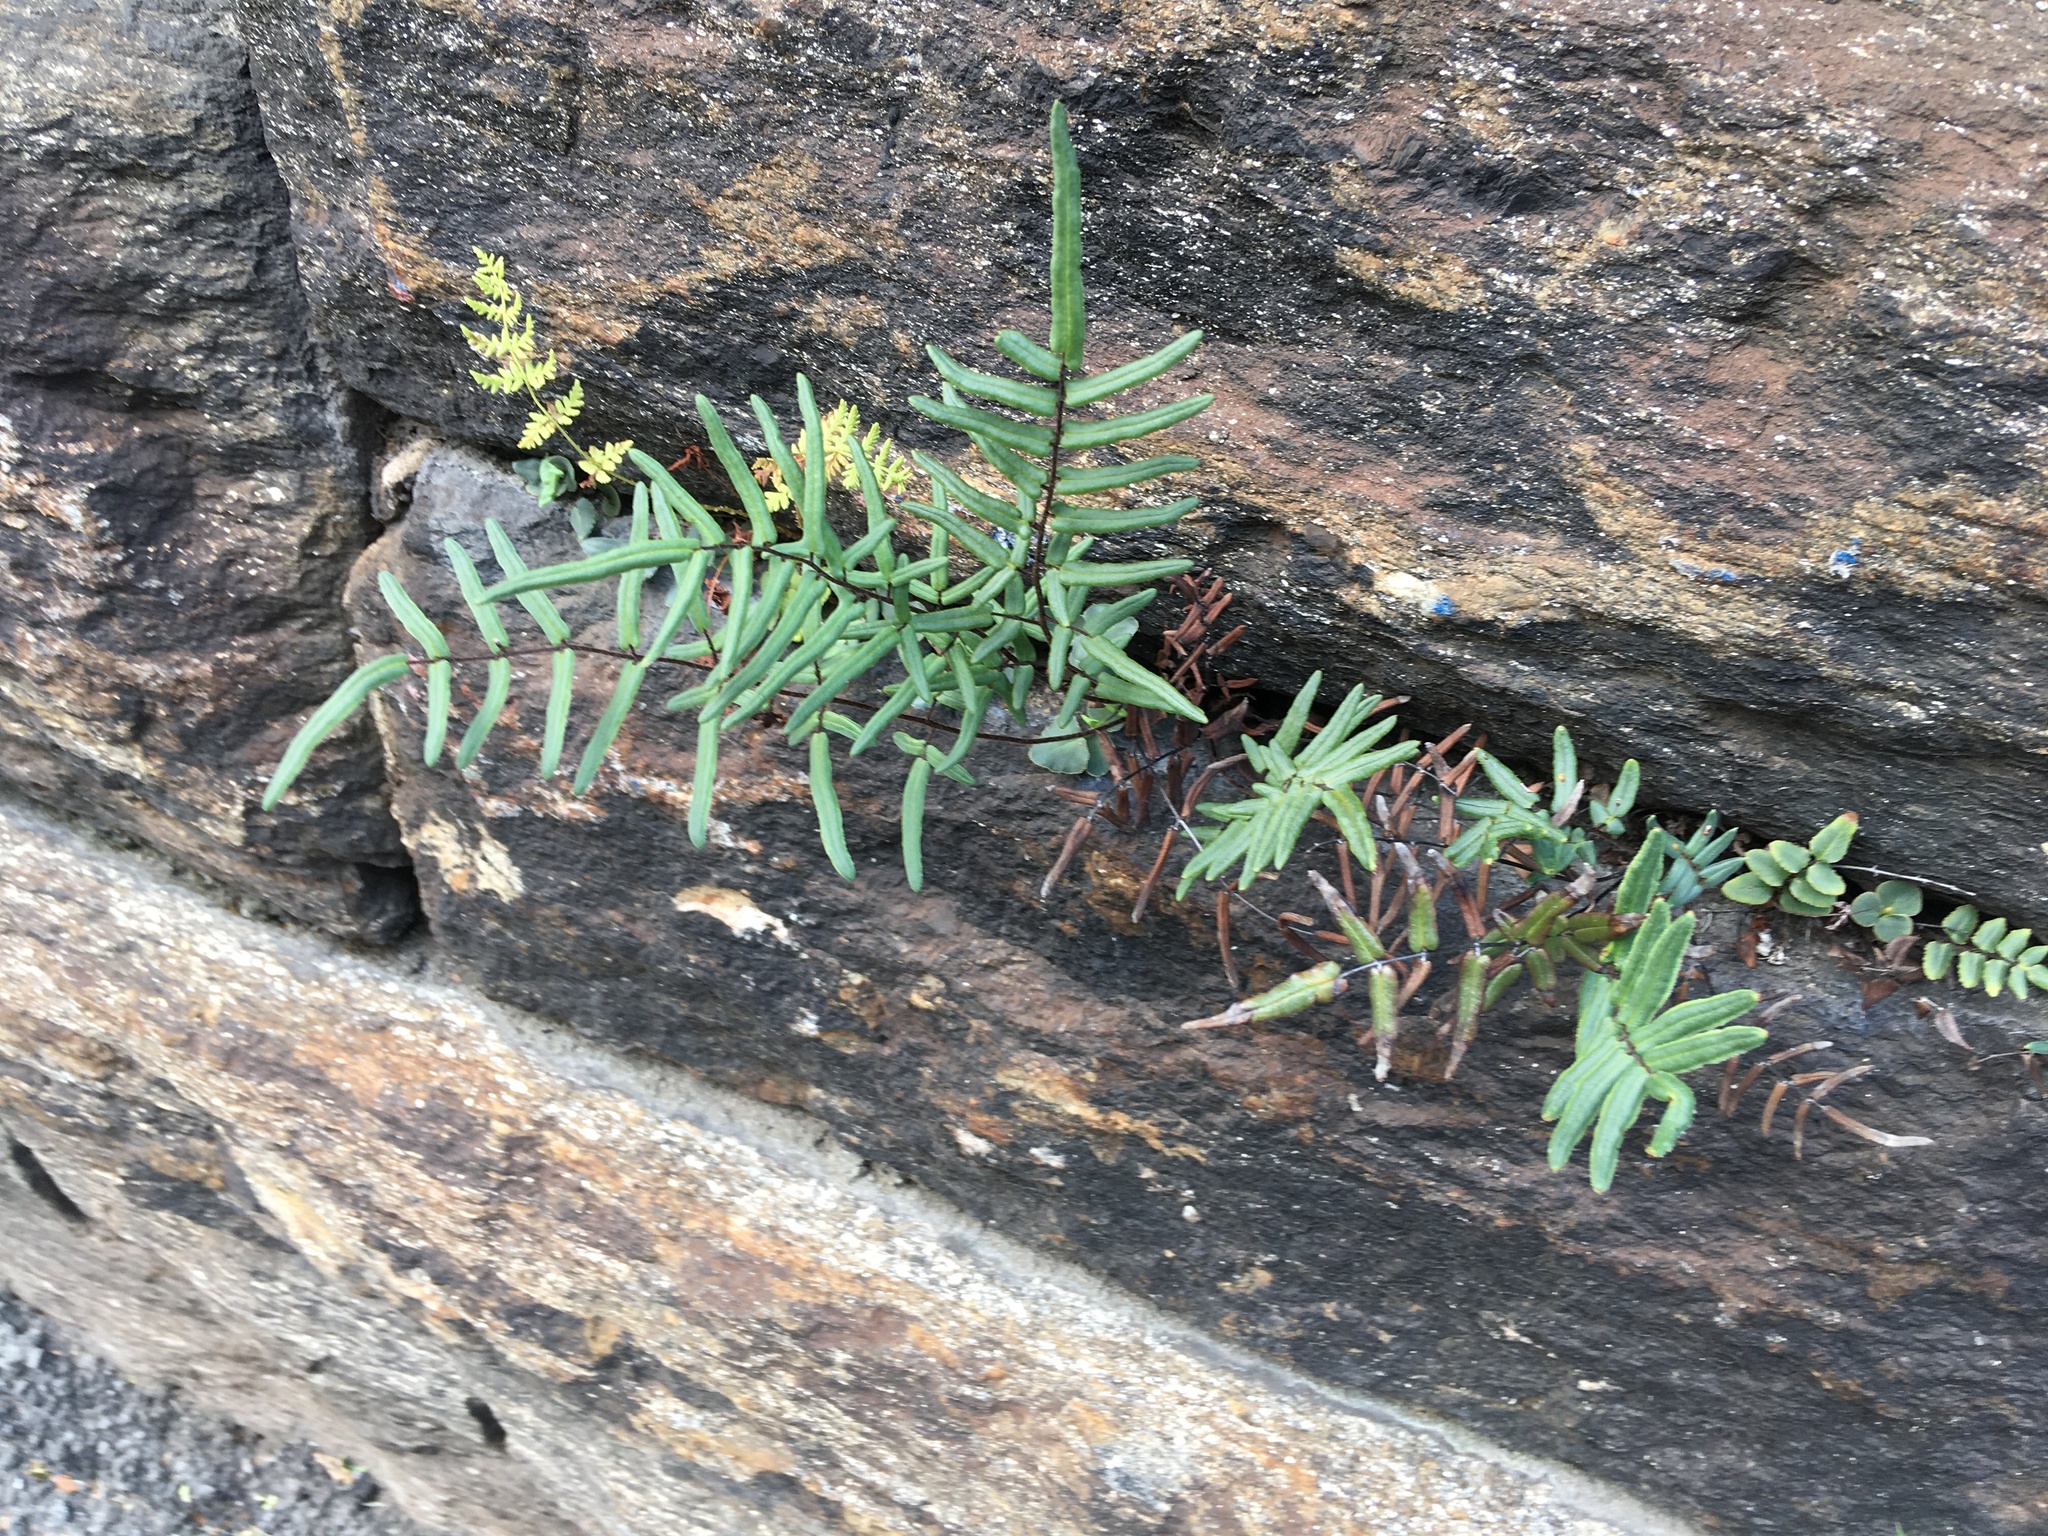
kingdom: Plantae
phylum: Tracheophyta
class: Polypodiopsida
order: Polypodiales
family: Pteridaceae
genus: Pellaea
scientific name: Pellaea atropurpurea
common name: Hairy cliffbrake
